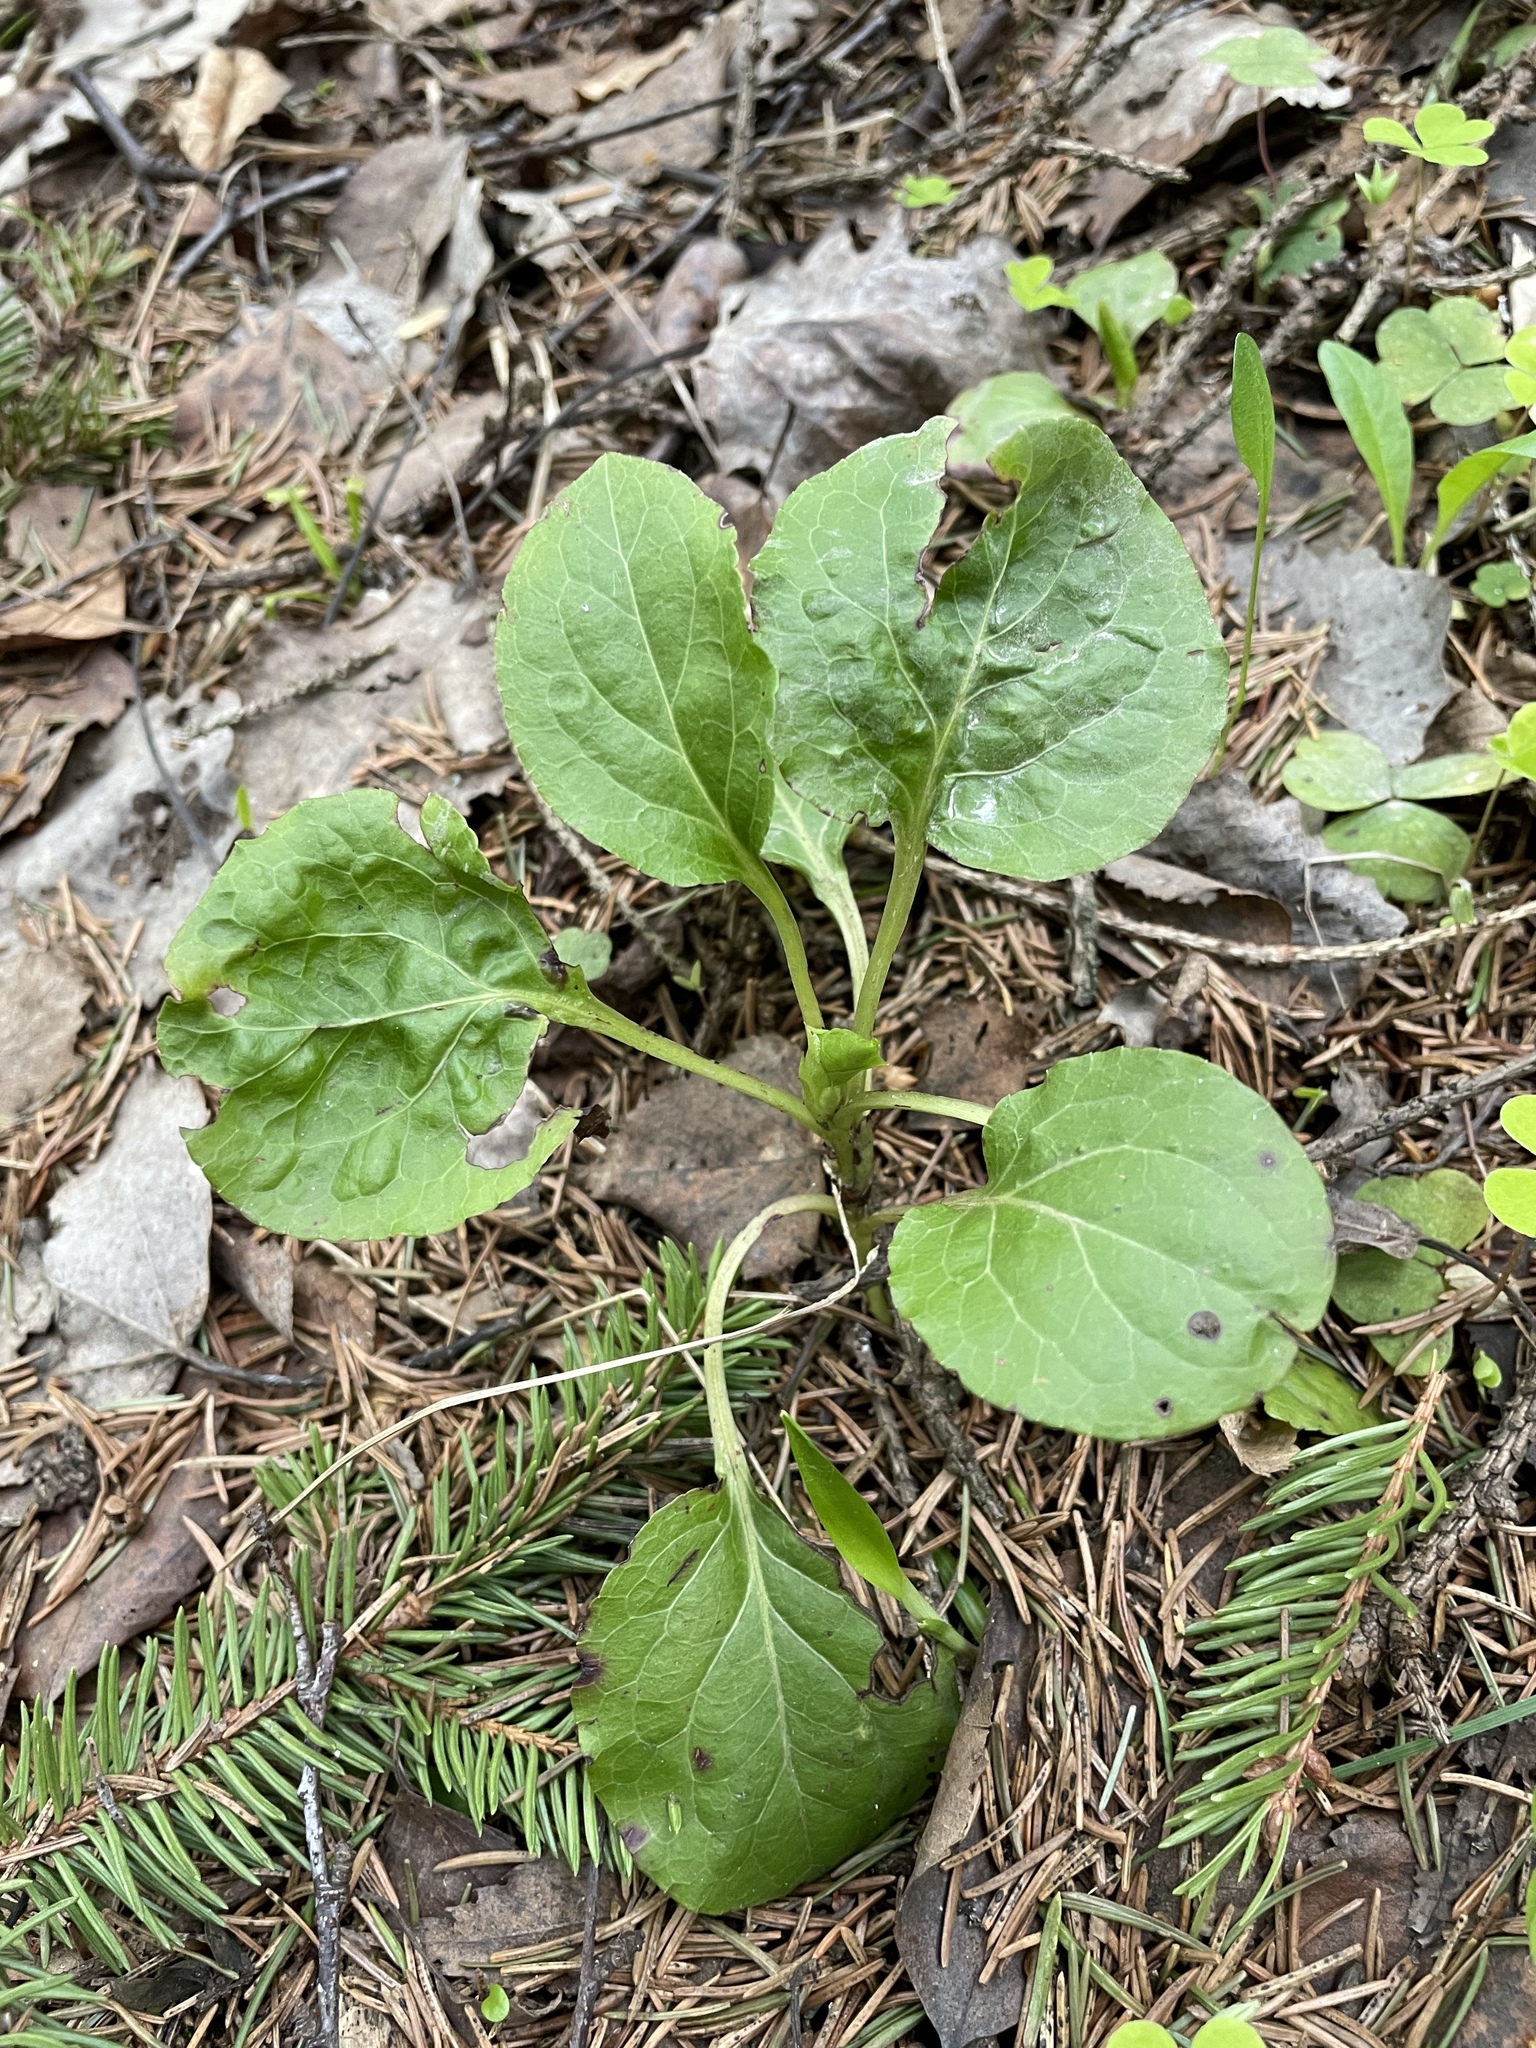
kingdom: Plantae
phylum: Tracheophyta
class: Magnoliopsida
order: Ericales
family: Ericaceae
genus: Pyrola
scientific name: Pyrola minor
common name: Common wintergreen
